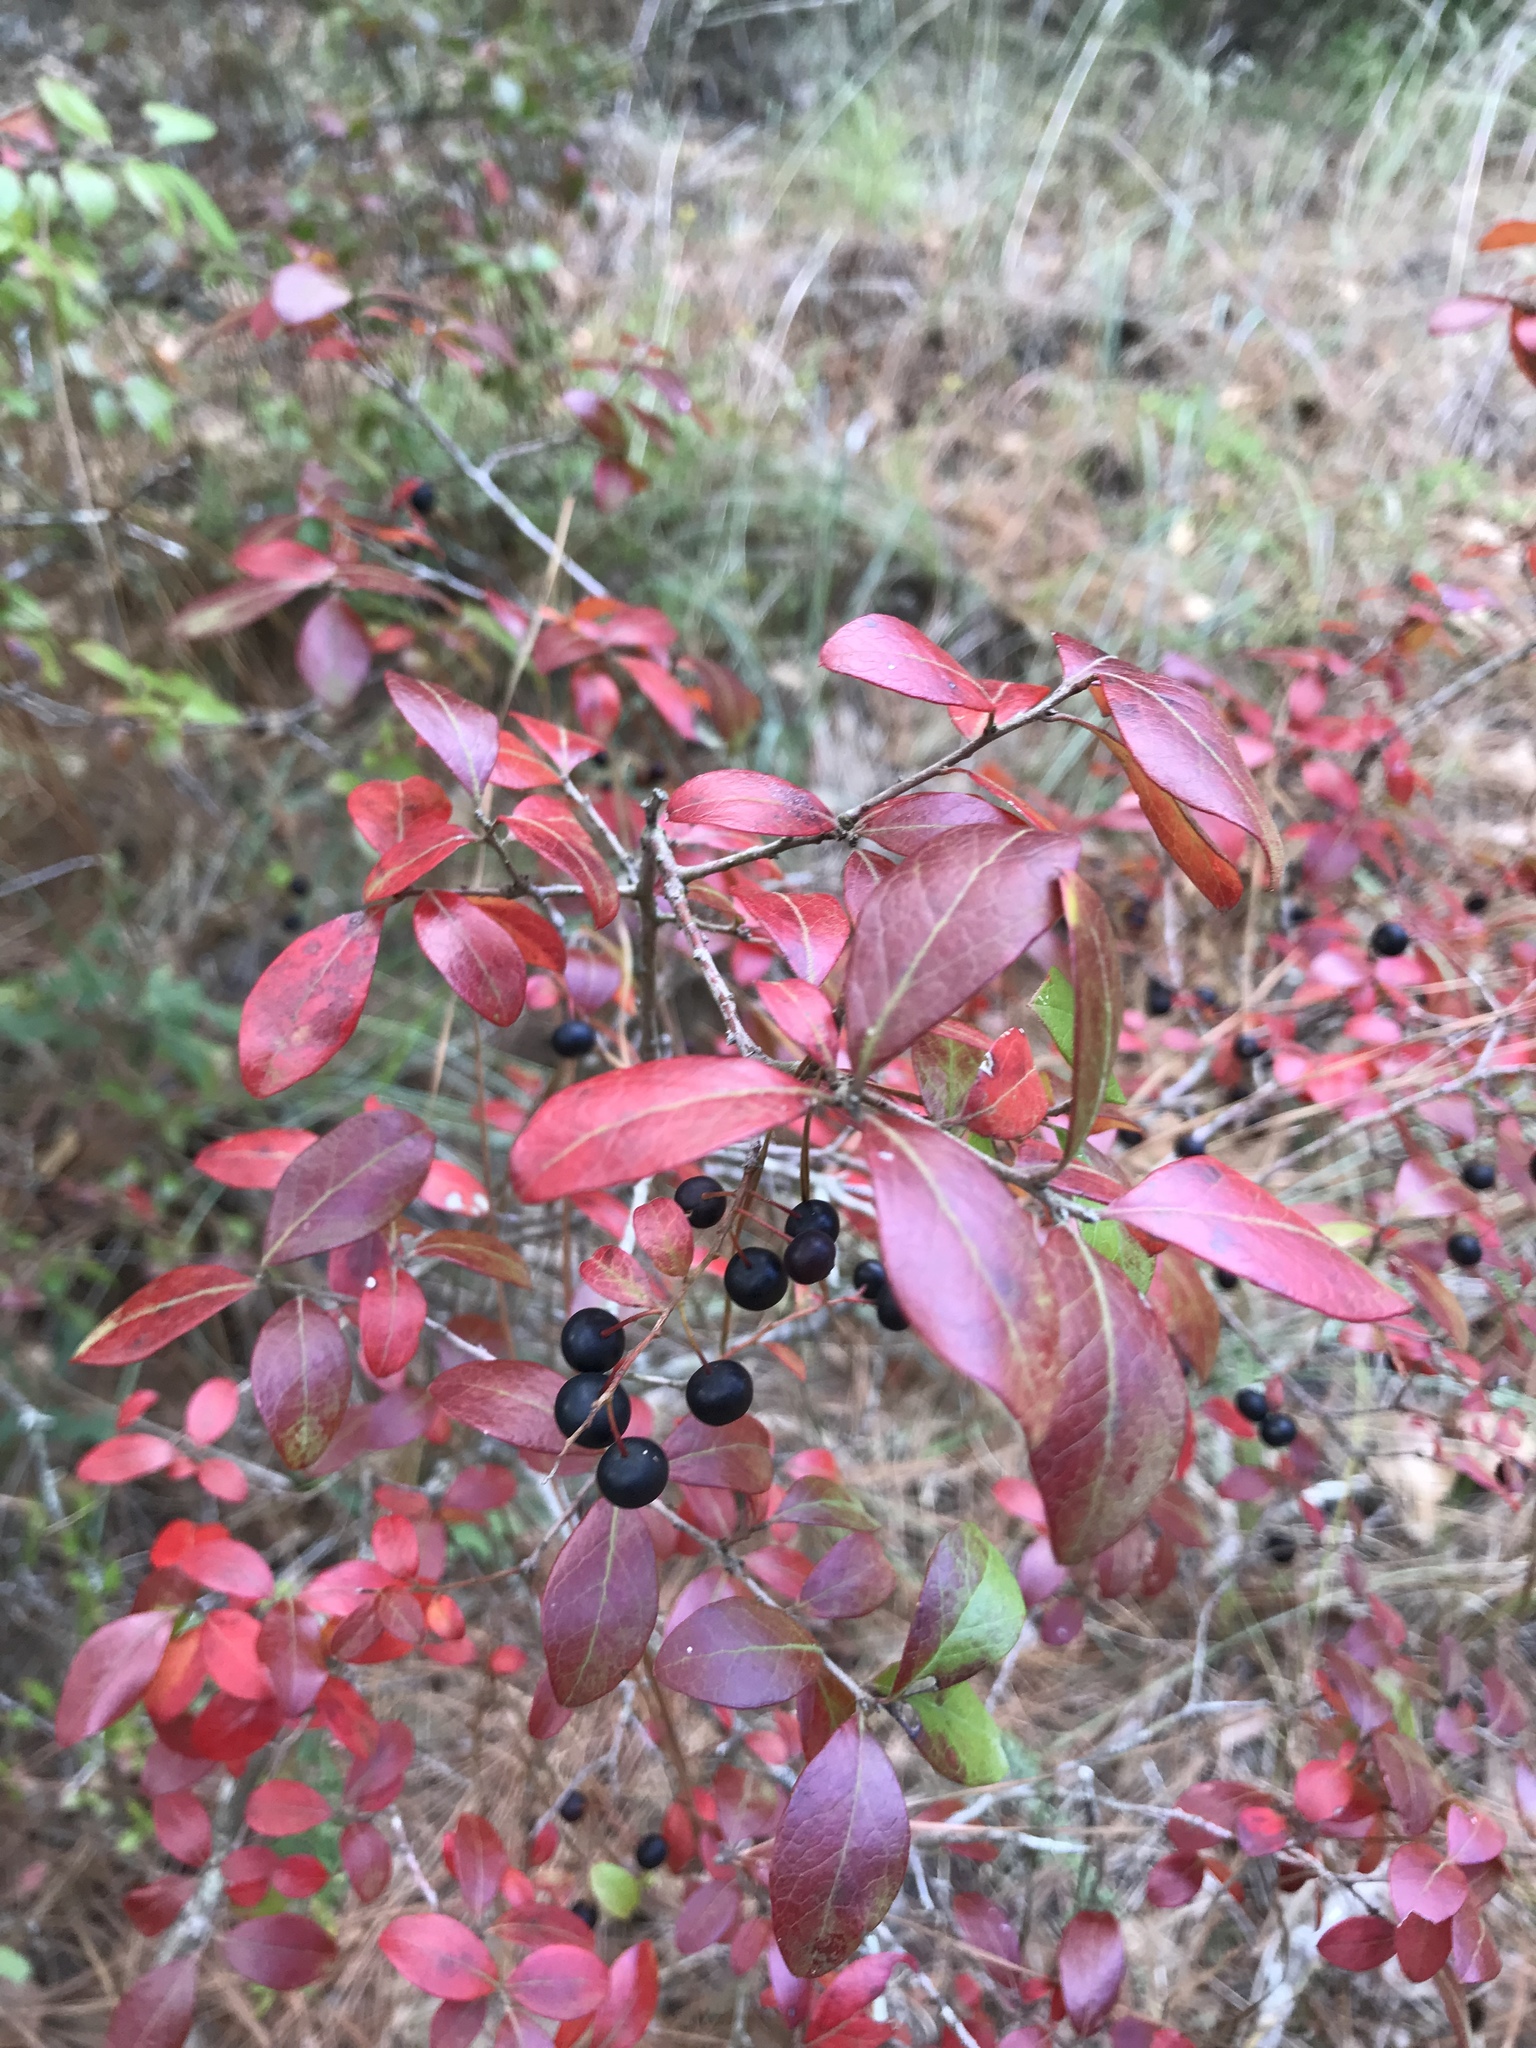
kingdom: Plantae
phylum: Tracheophyta
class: Magnoliopsida
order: Ericales
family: Ericaceae
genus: Vaccinium
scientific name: Vaccinium arboreum
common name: Farkleberry
